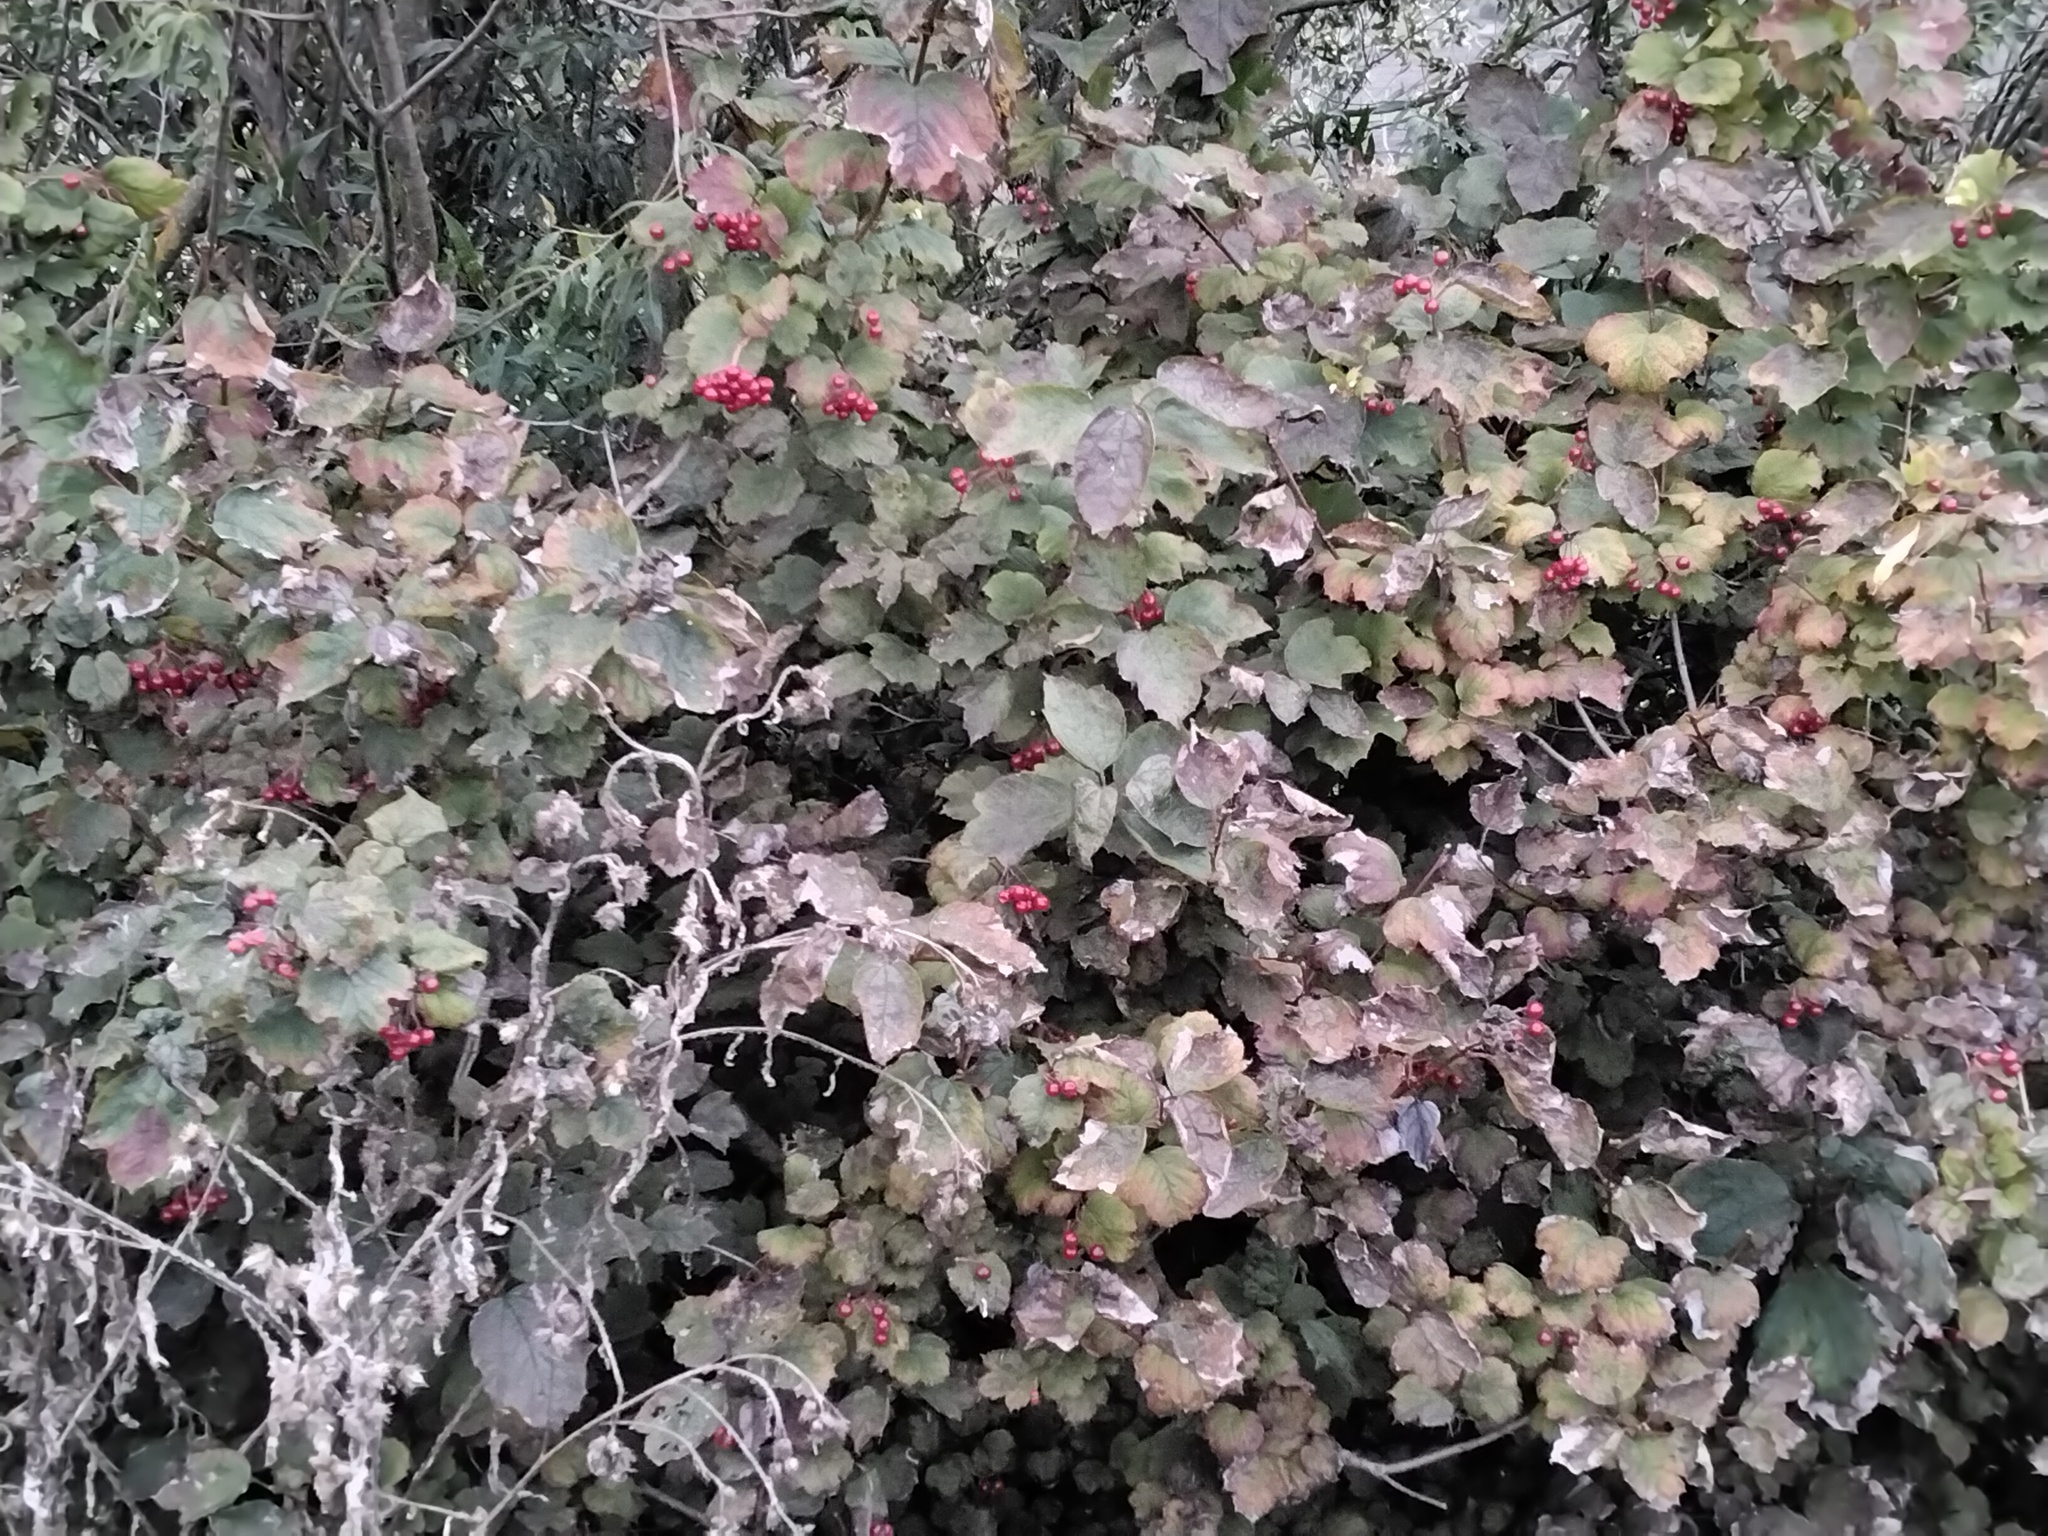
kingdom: Plantae
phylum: Tracheophyta
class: Magnoliopsida
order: Dipsacales
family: Viburnaceae
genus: Viburnum
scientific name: Viburnum opulus
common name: Guelder-rose
